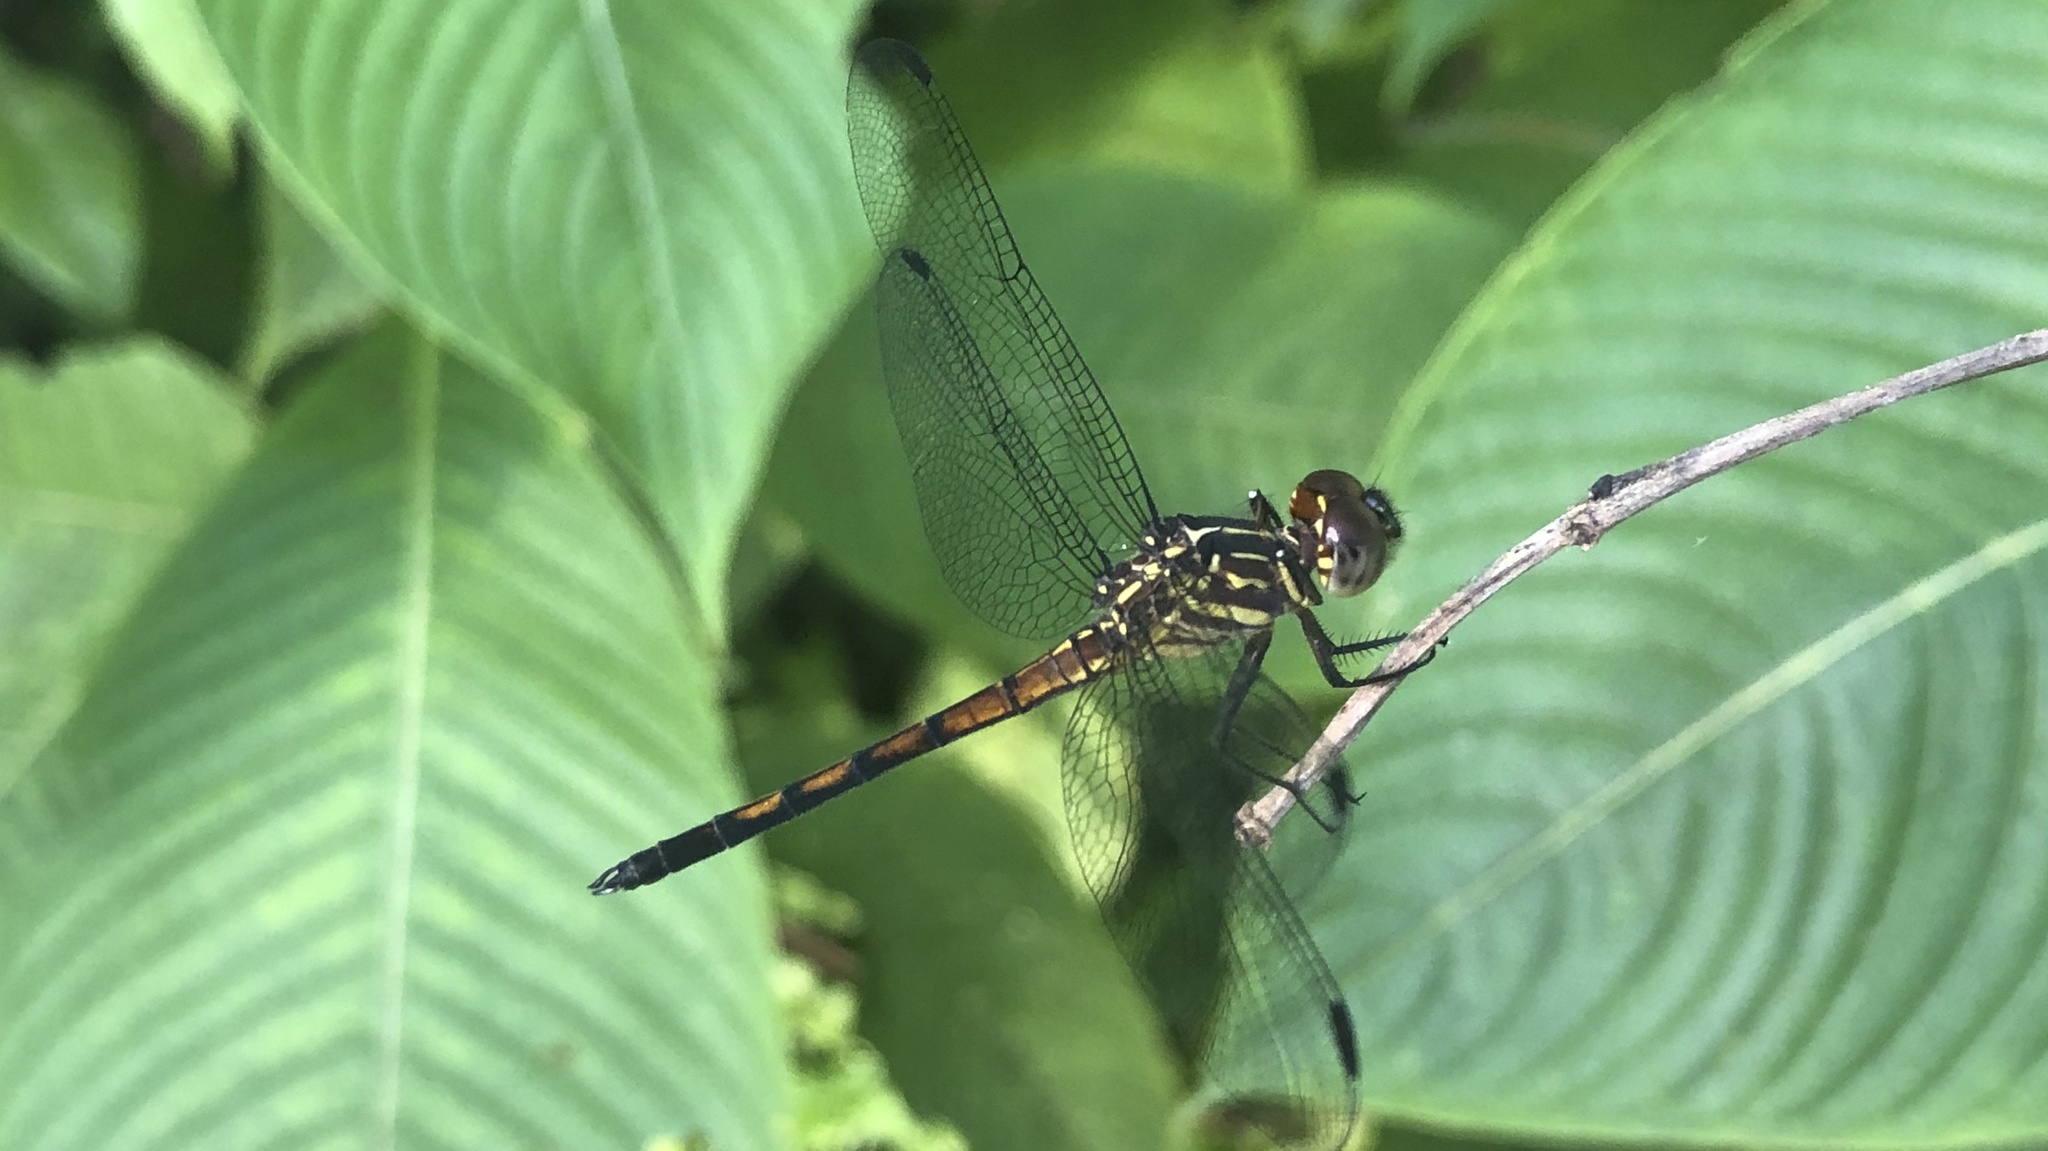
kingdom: Animalia
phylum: Arthropoda
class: Insecta
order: Odonata
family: Libellulidae
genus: Cannaphila
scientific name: Cannaphila insularis
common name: Gray-waisted skimmer
